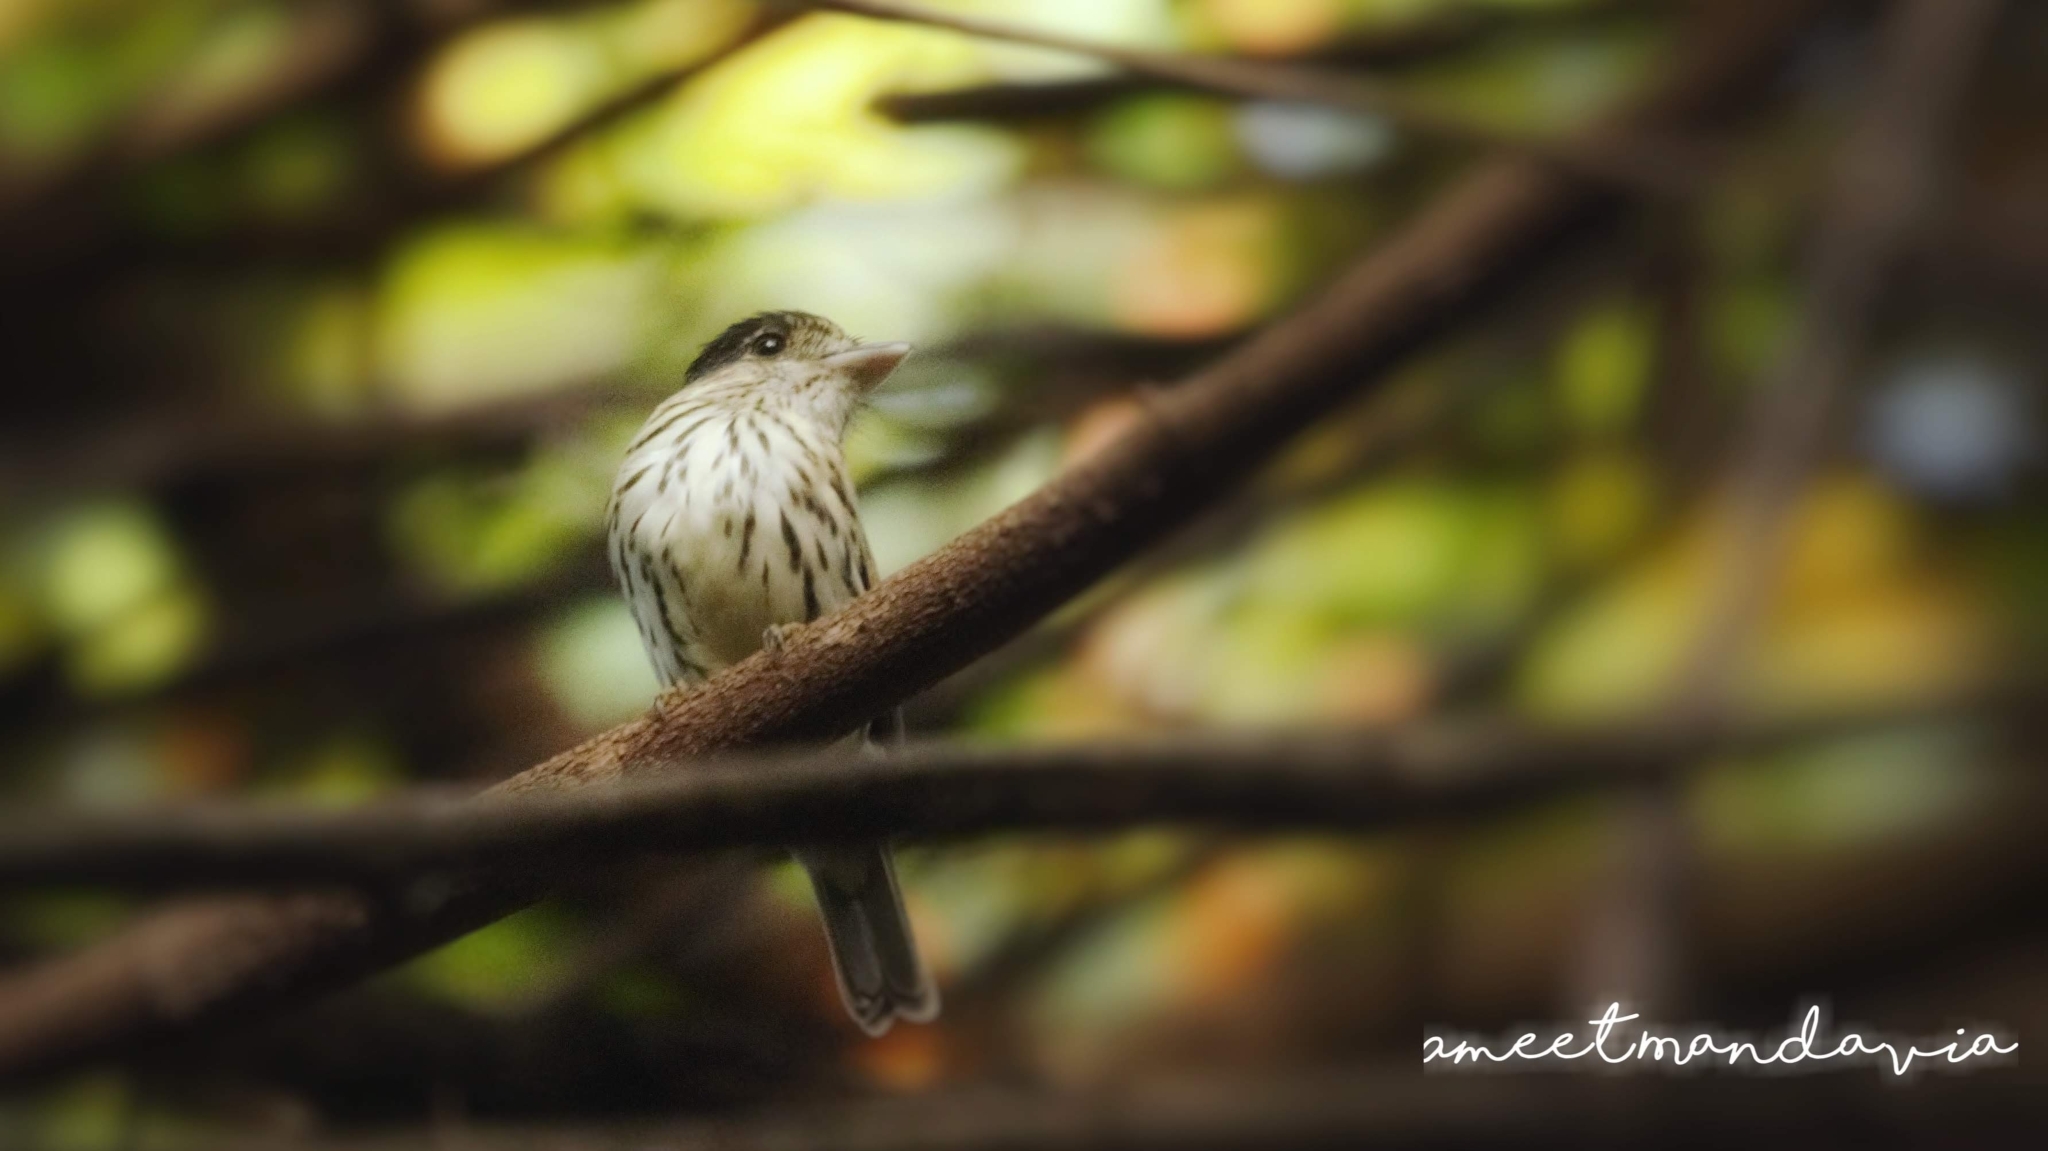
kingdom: Animalia
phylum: Chordata
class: Aves
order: Passeriformes
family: Eurylaimidae
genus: Smithornis
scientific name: Smithornis capensis
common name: African broadbill
